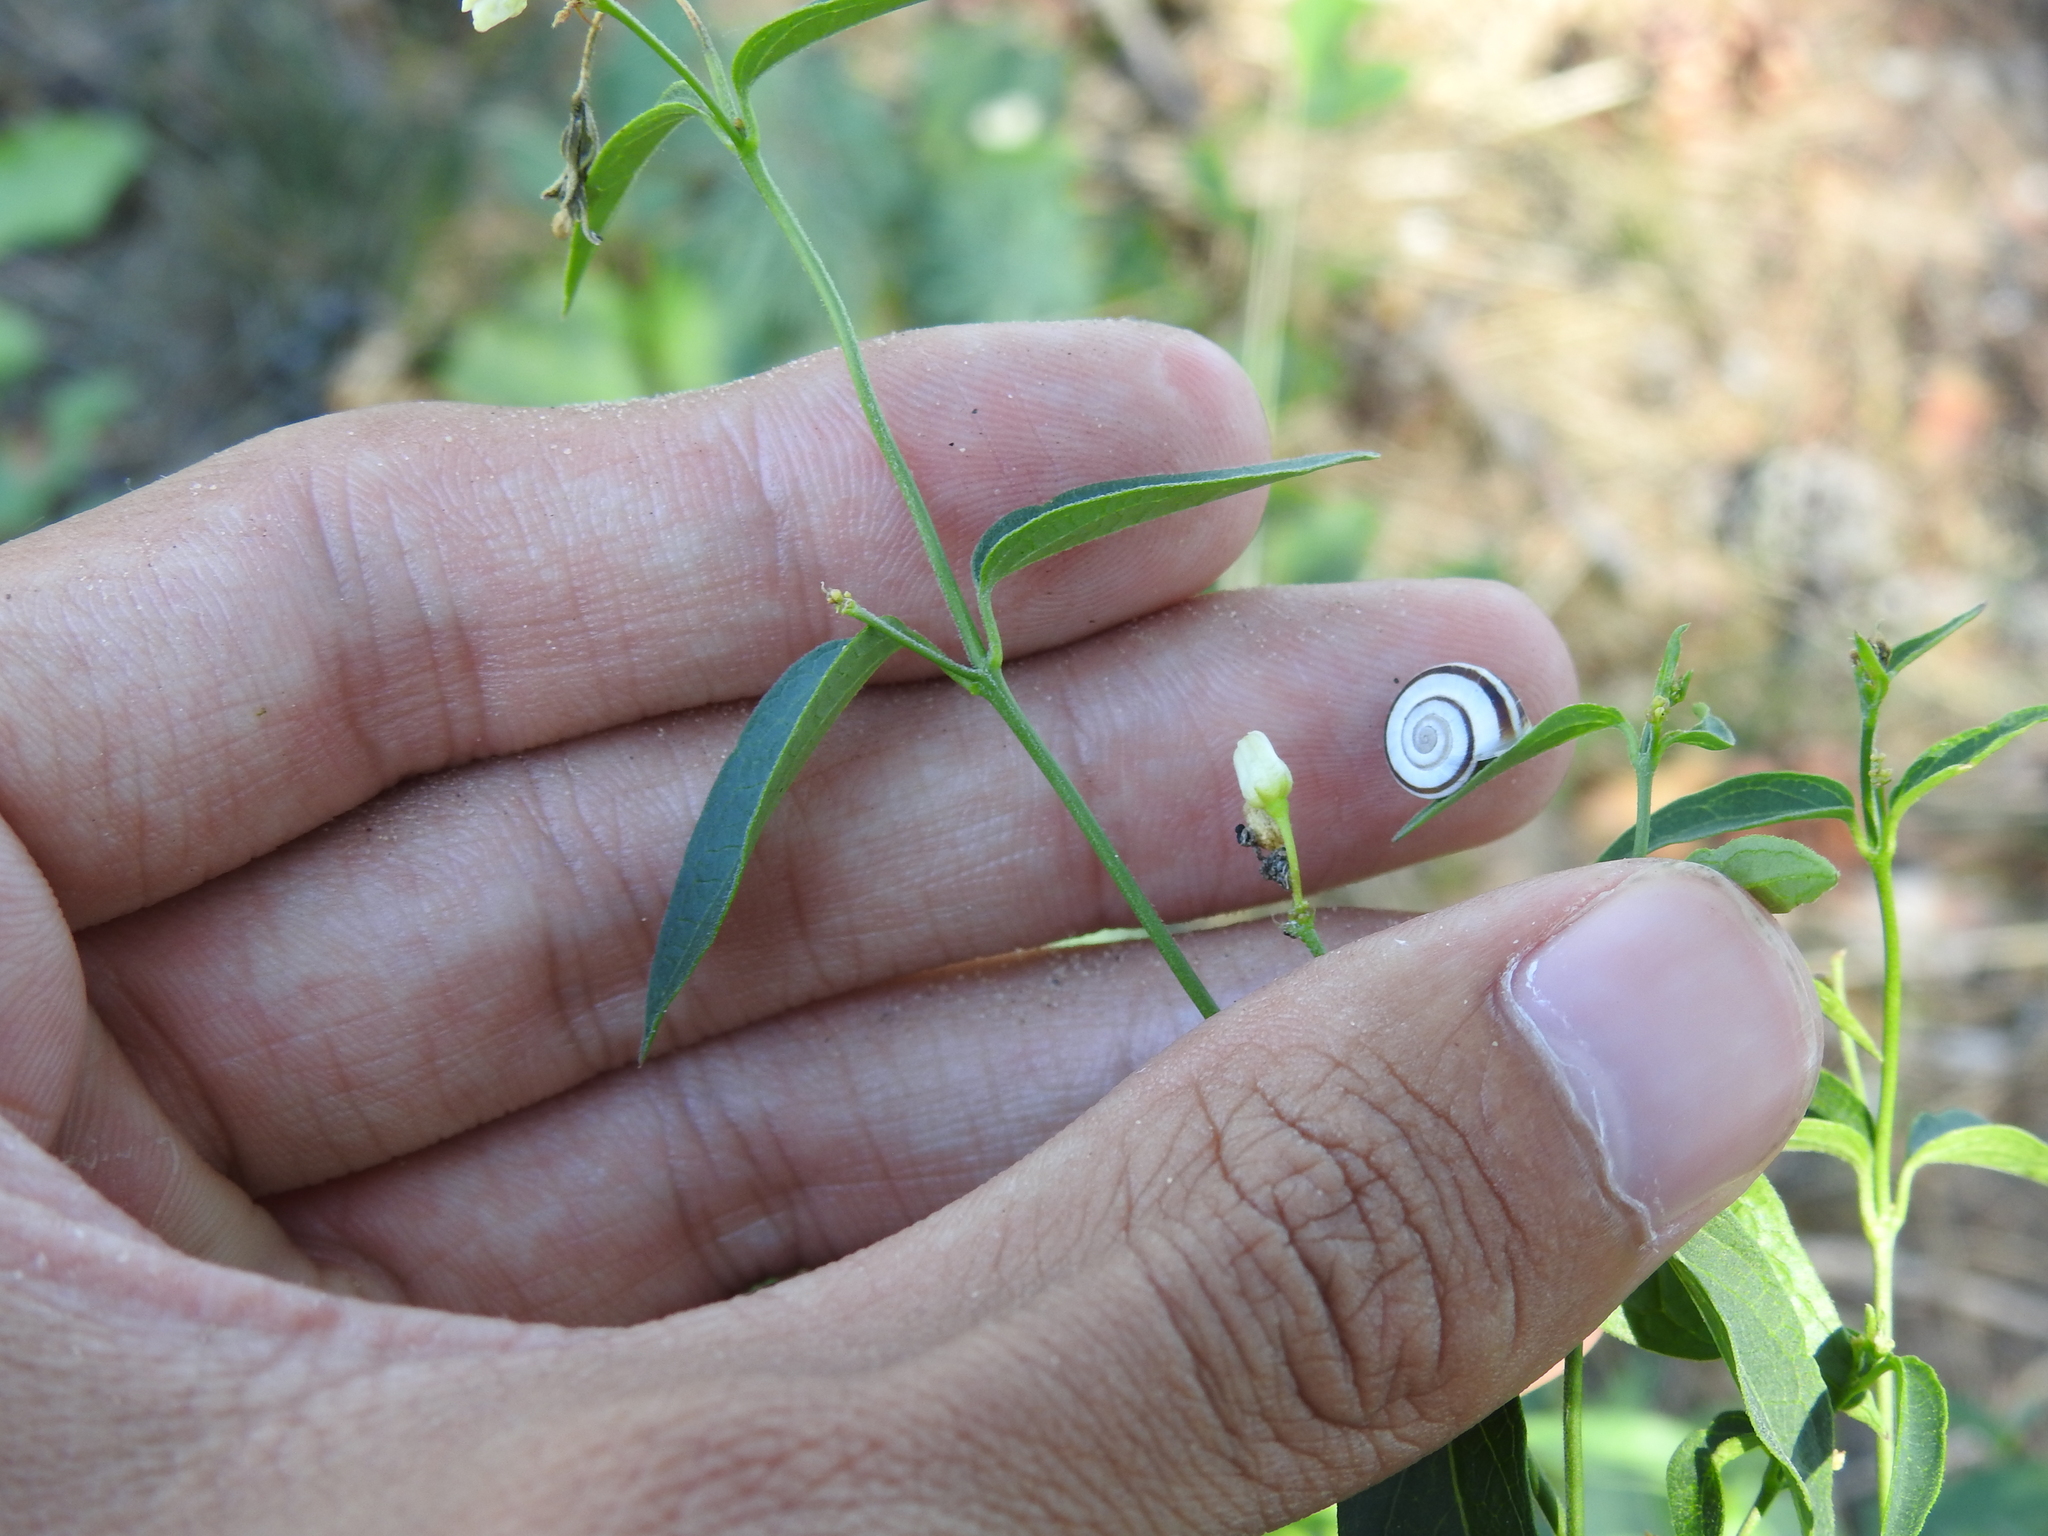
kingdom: Plantae
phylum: Tracheophyta
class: Magnoliopsida
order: Gentianales
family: Apocynaceae
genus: Vincetoxicum
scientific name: Vincetoxicum hirundinaria
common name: White swallowwort
